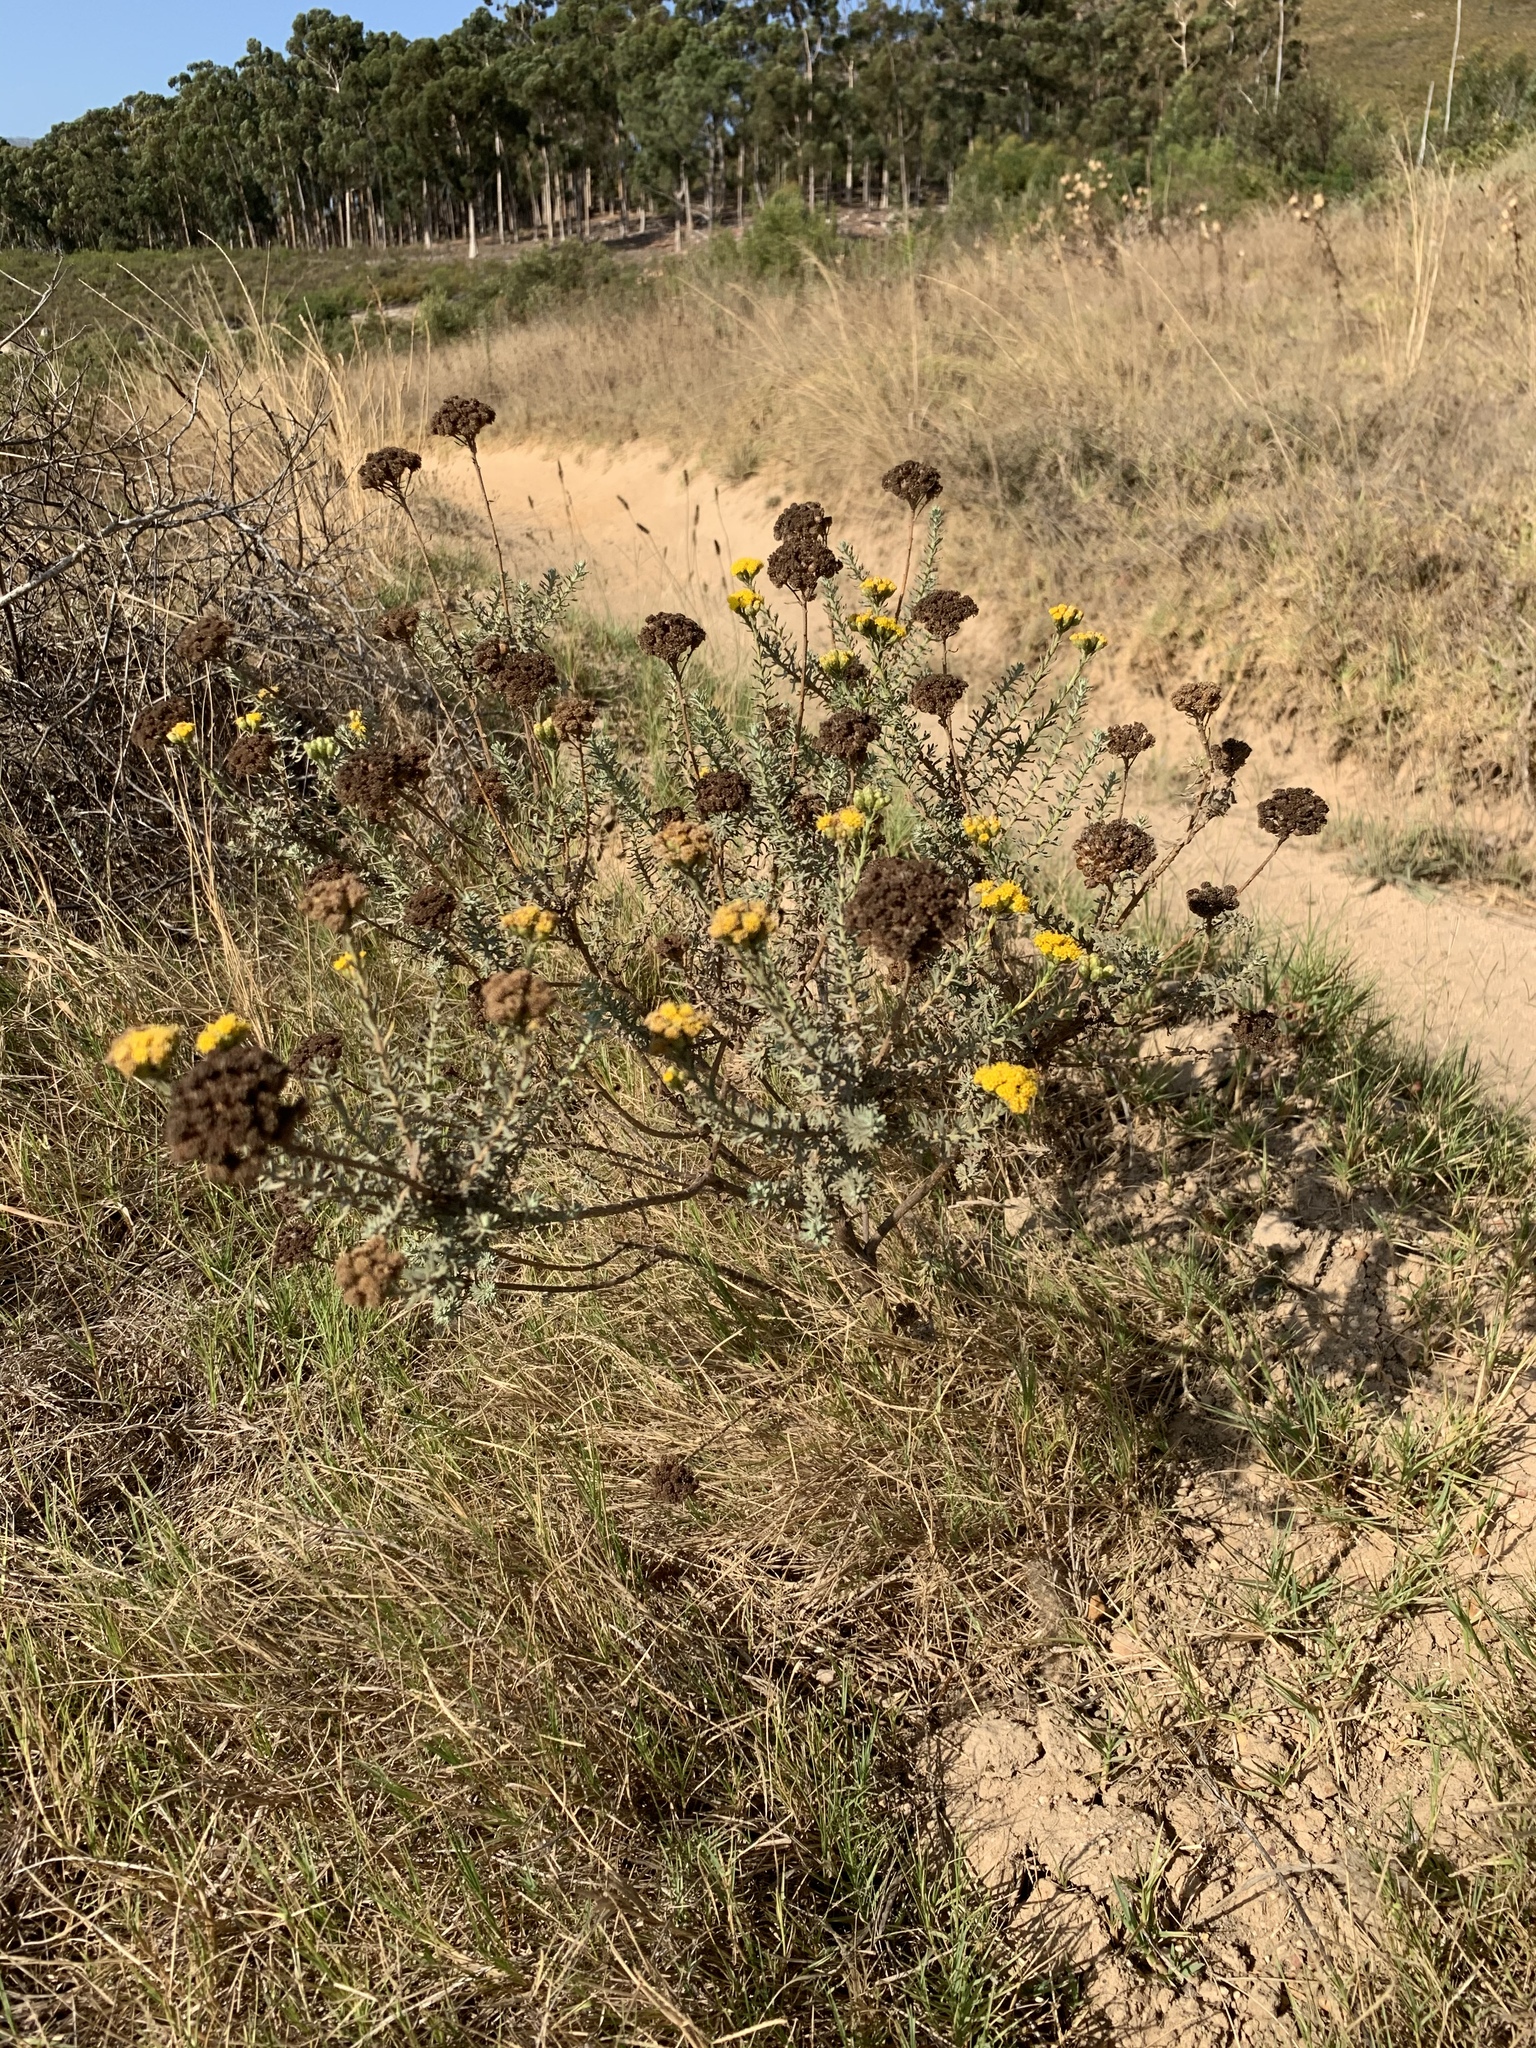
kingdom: Plantae
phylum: Tracheophyta
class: Magnoliopsida
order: Asterales
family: Asteraceae
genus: Athanasia
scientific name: Athanasia trifurcata
